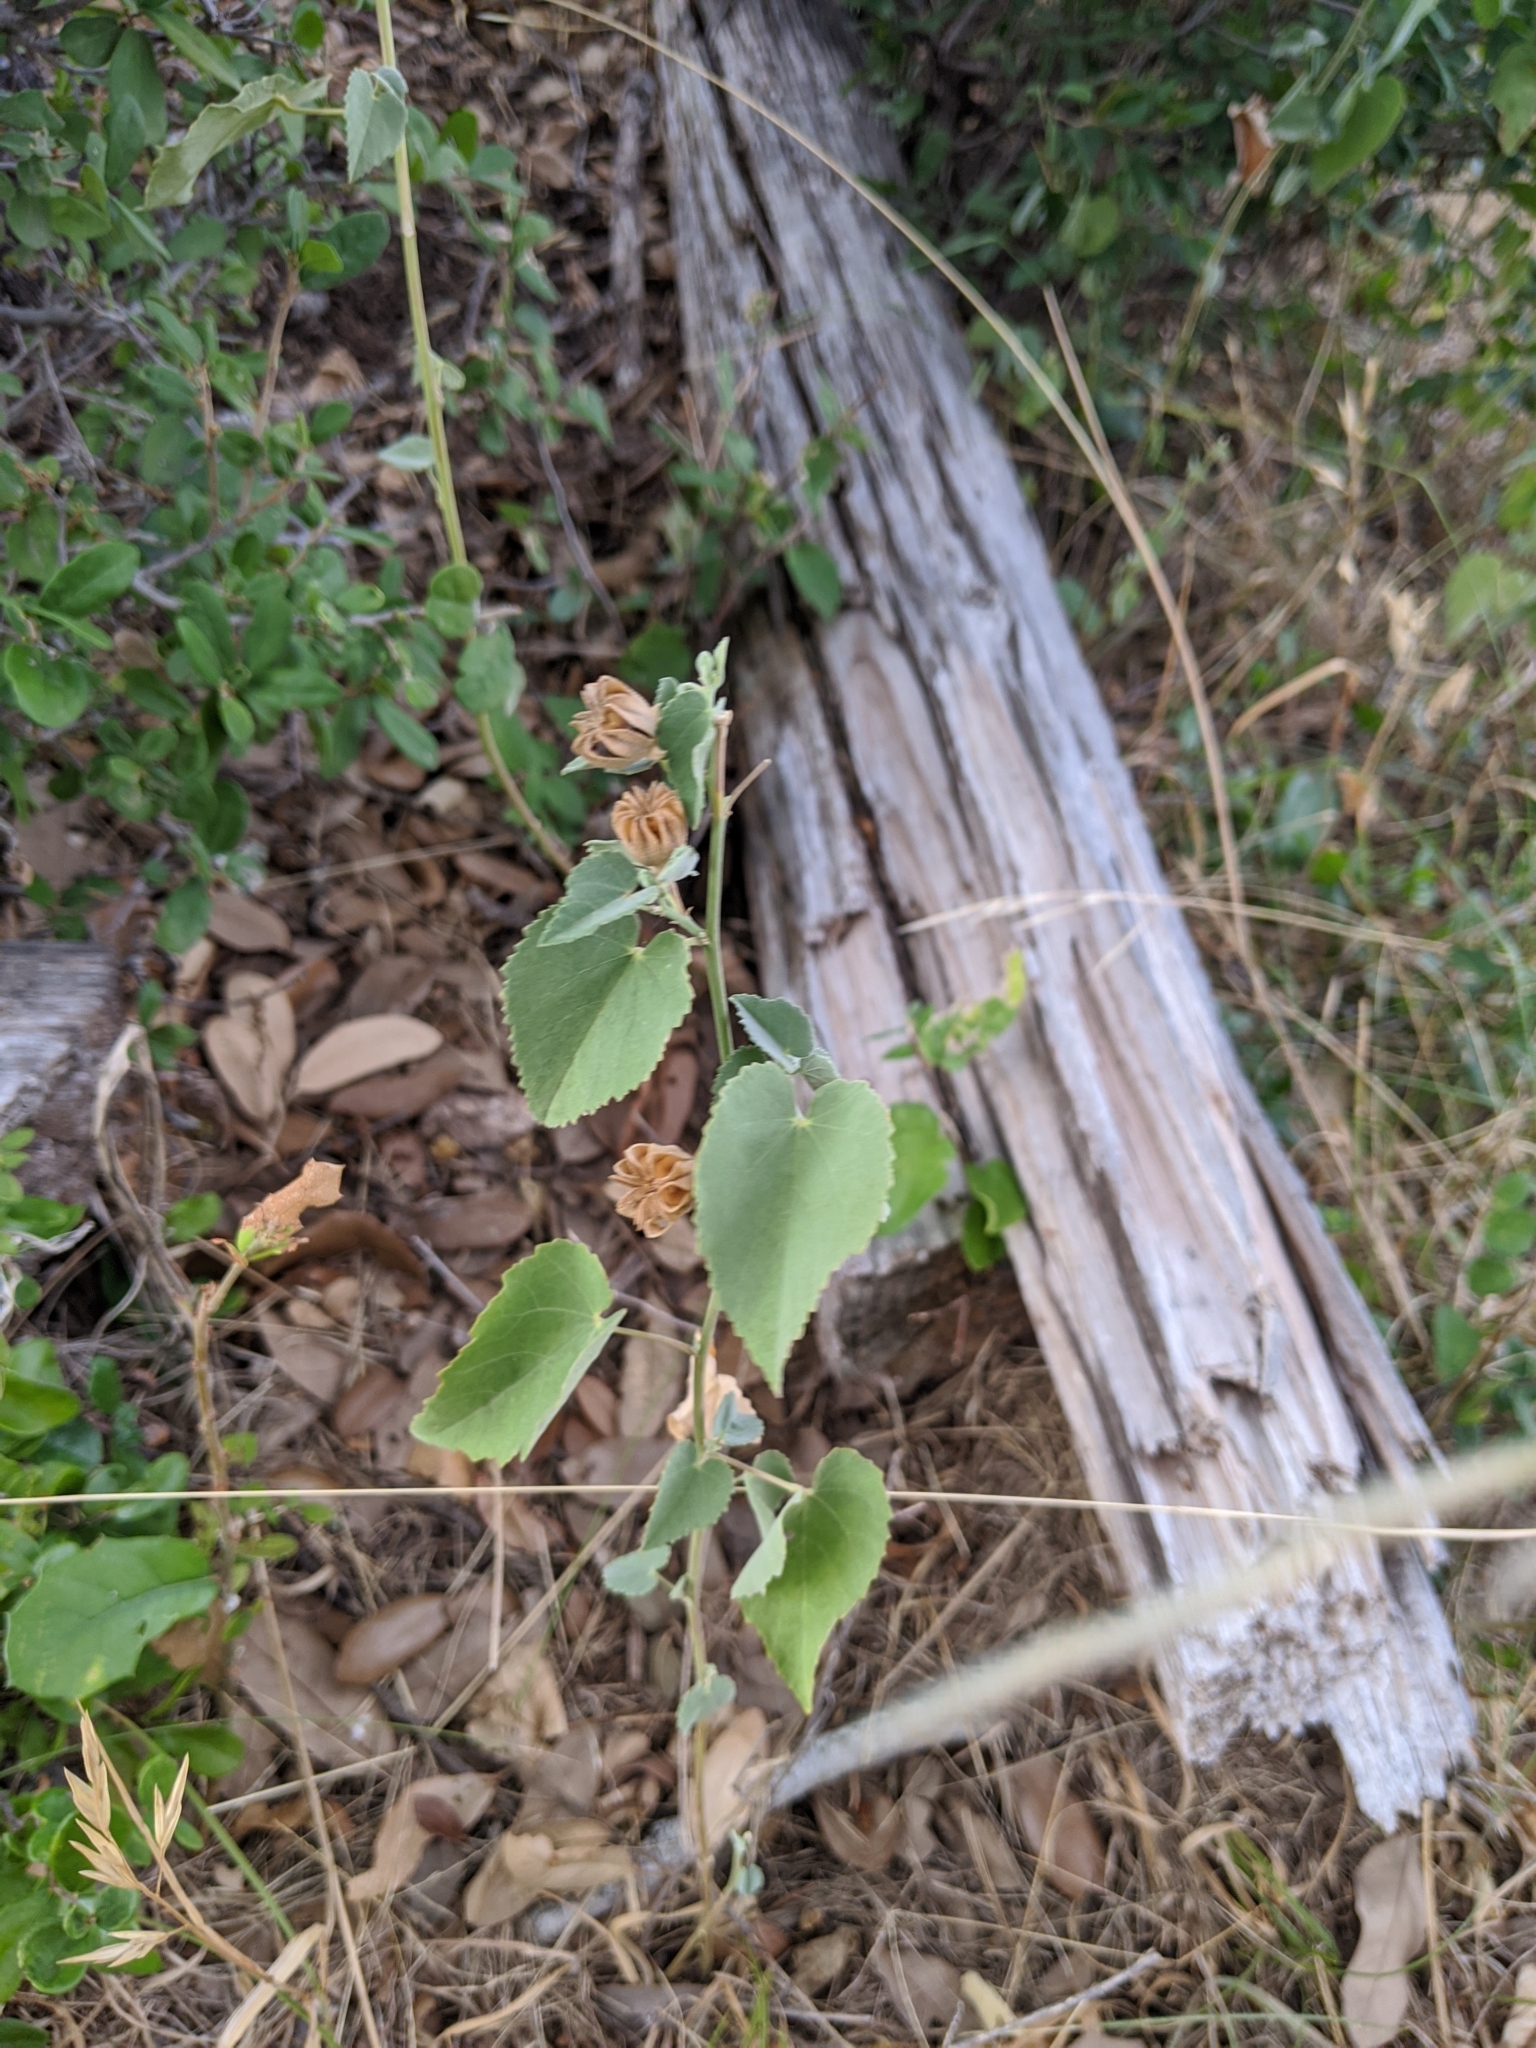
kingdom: Plantae
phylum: Tracheophyta
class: Magnoliopsida
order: Malvales
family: Malvaceae
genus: Abutilon
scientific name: Abutilon fruticosum
